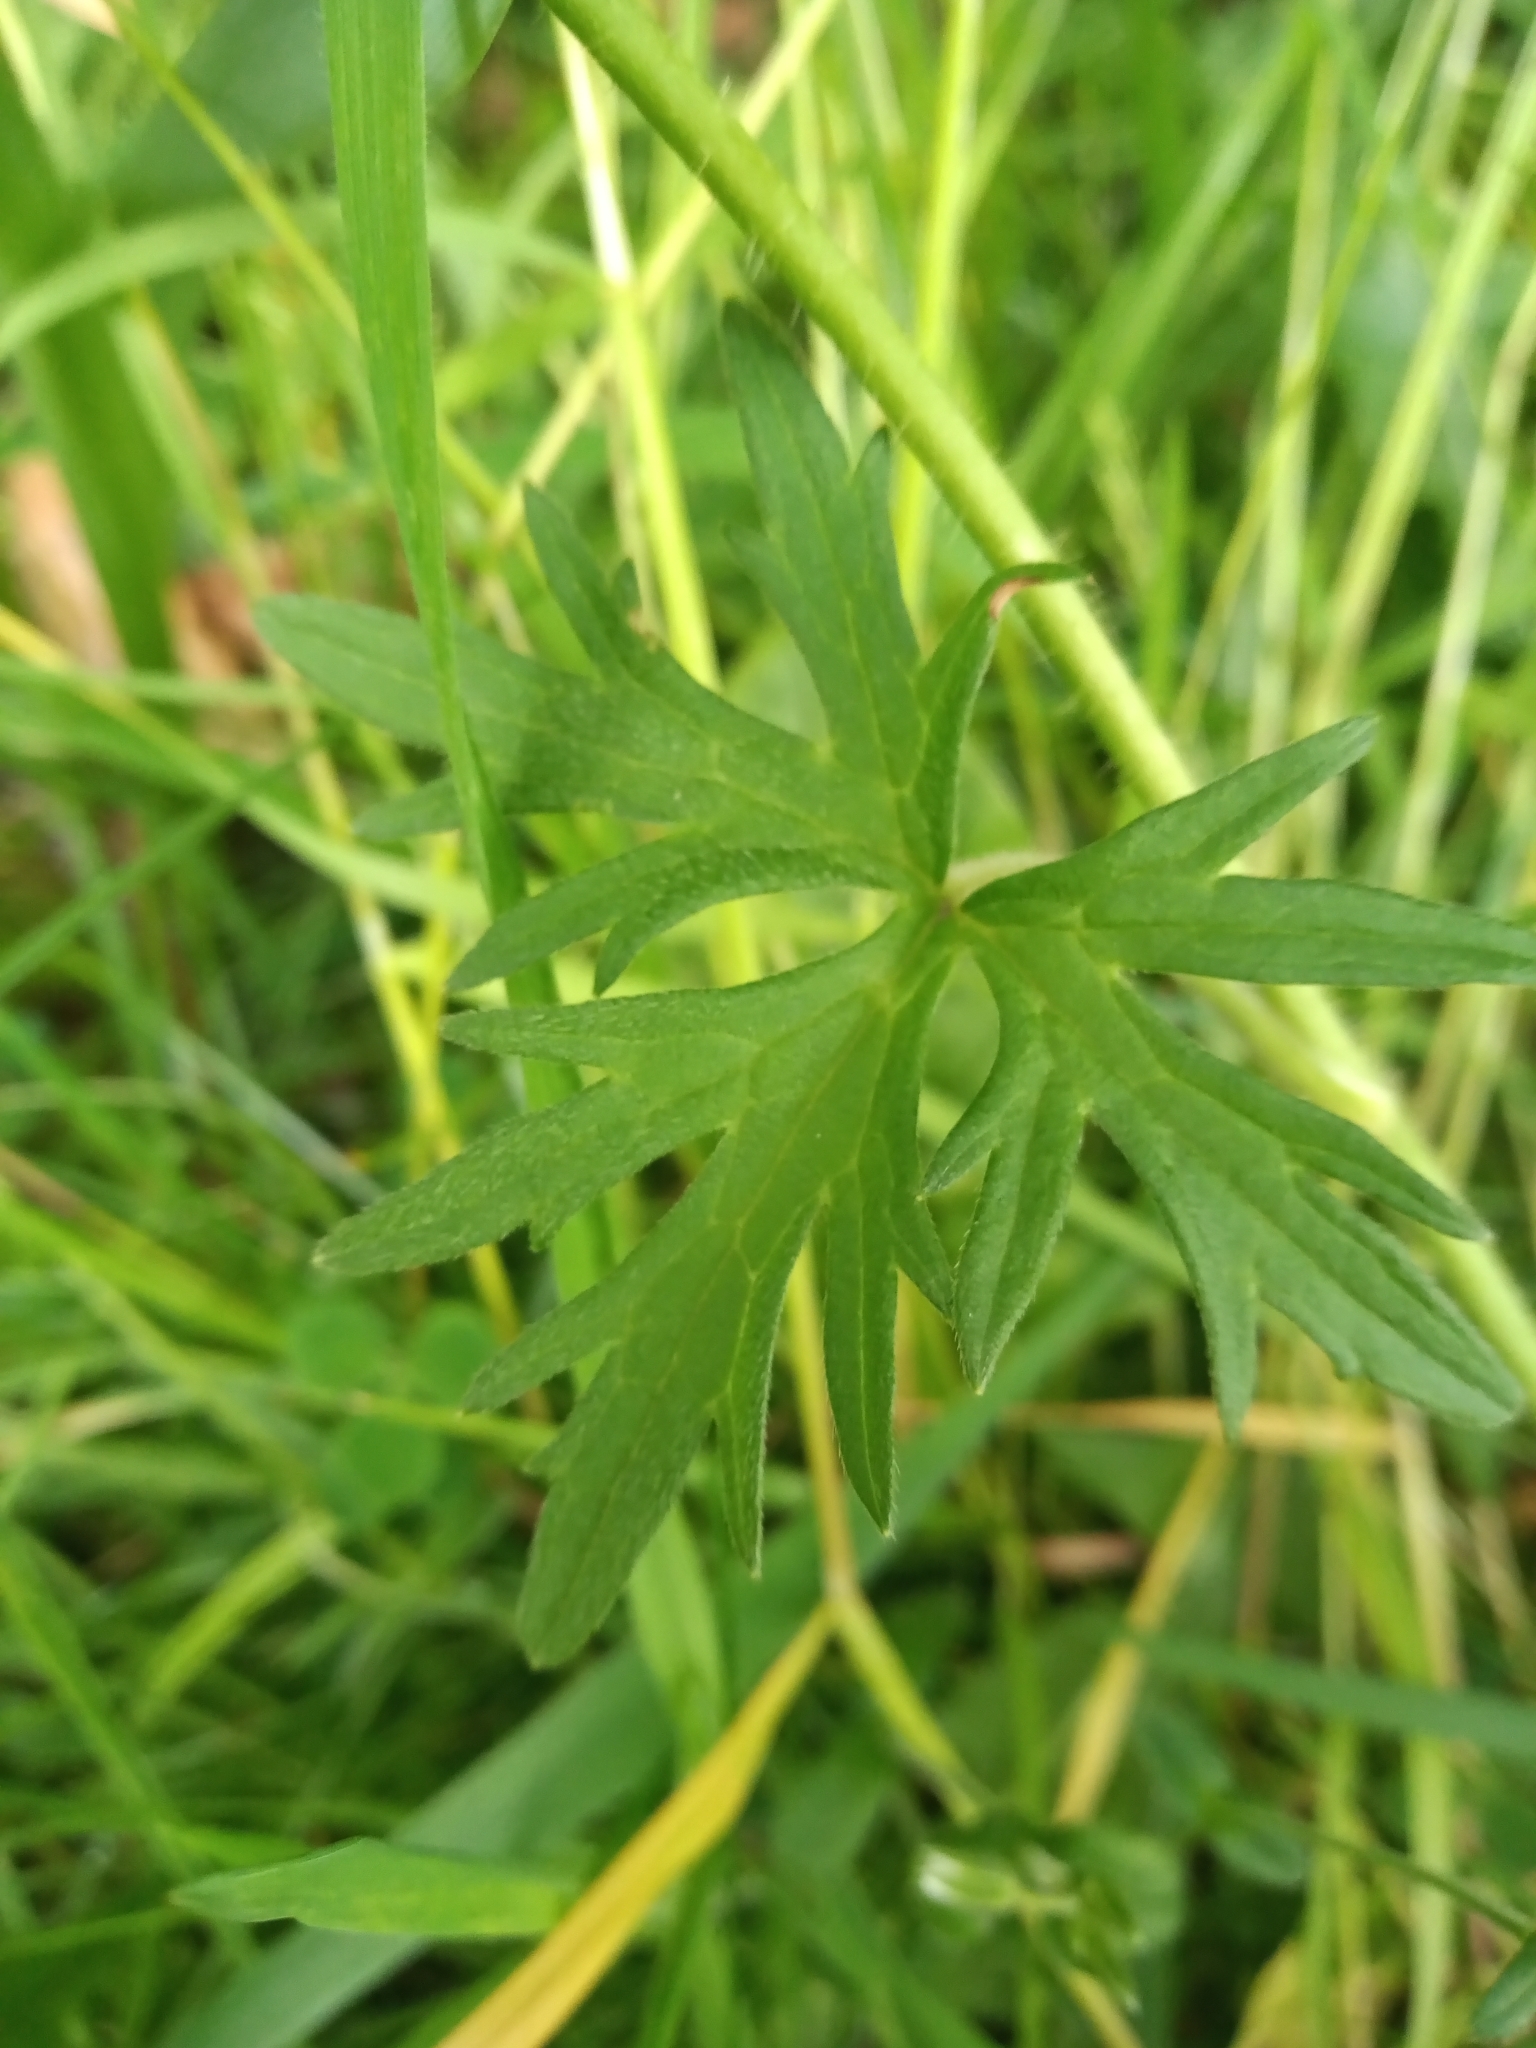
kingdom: Plantae
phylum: Tracheophyta
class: Magnoliopsida
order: Ranunculales
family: Ranunculaceae
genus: Ranunculus
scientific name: Ranunculus acris
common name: Meadow buttercup
